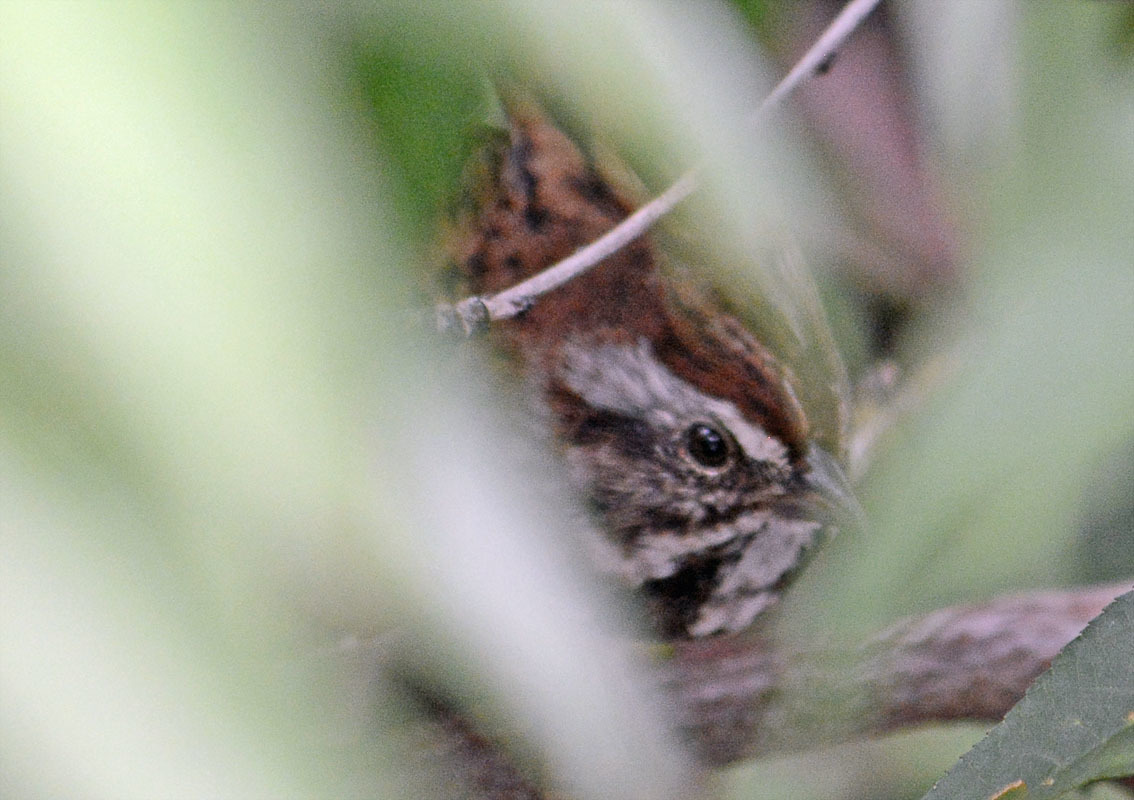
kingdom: Animalia
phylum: Chordata
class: Aves
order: Passeriformes
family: Passerellidae
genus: Melospiza
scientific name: Melospiza melodia
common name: Song sparrow
